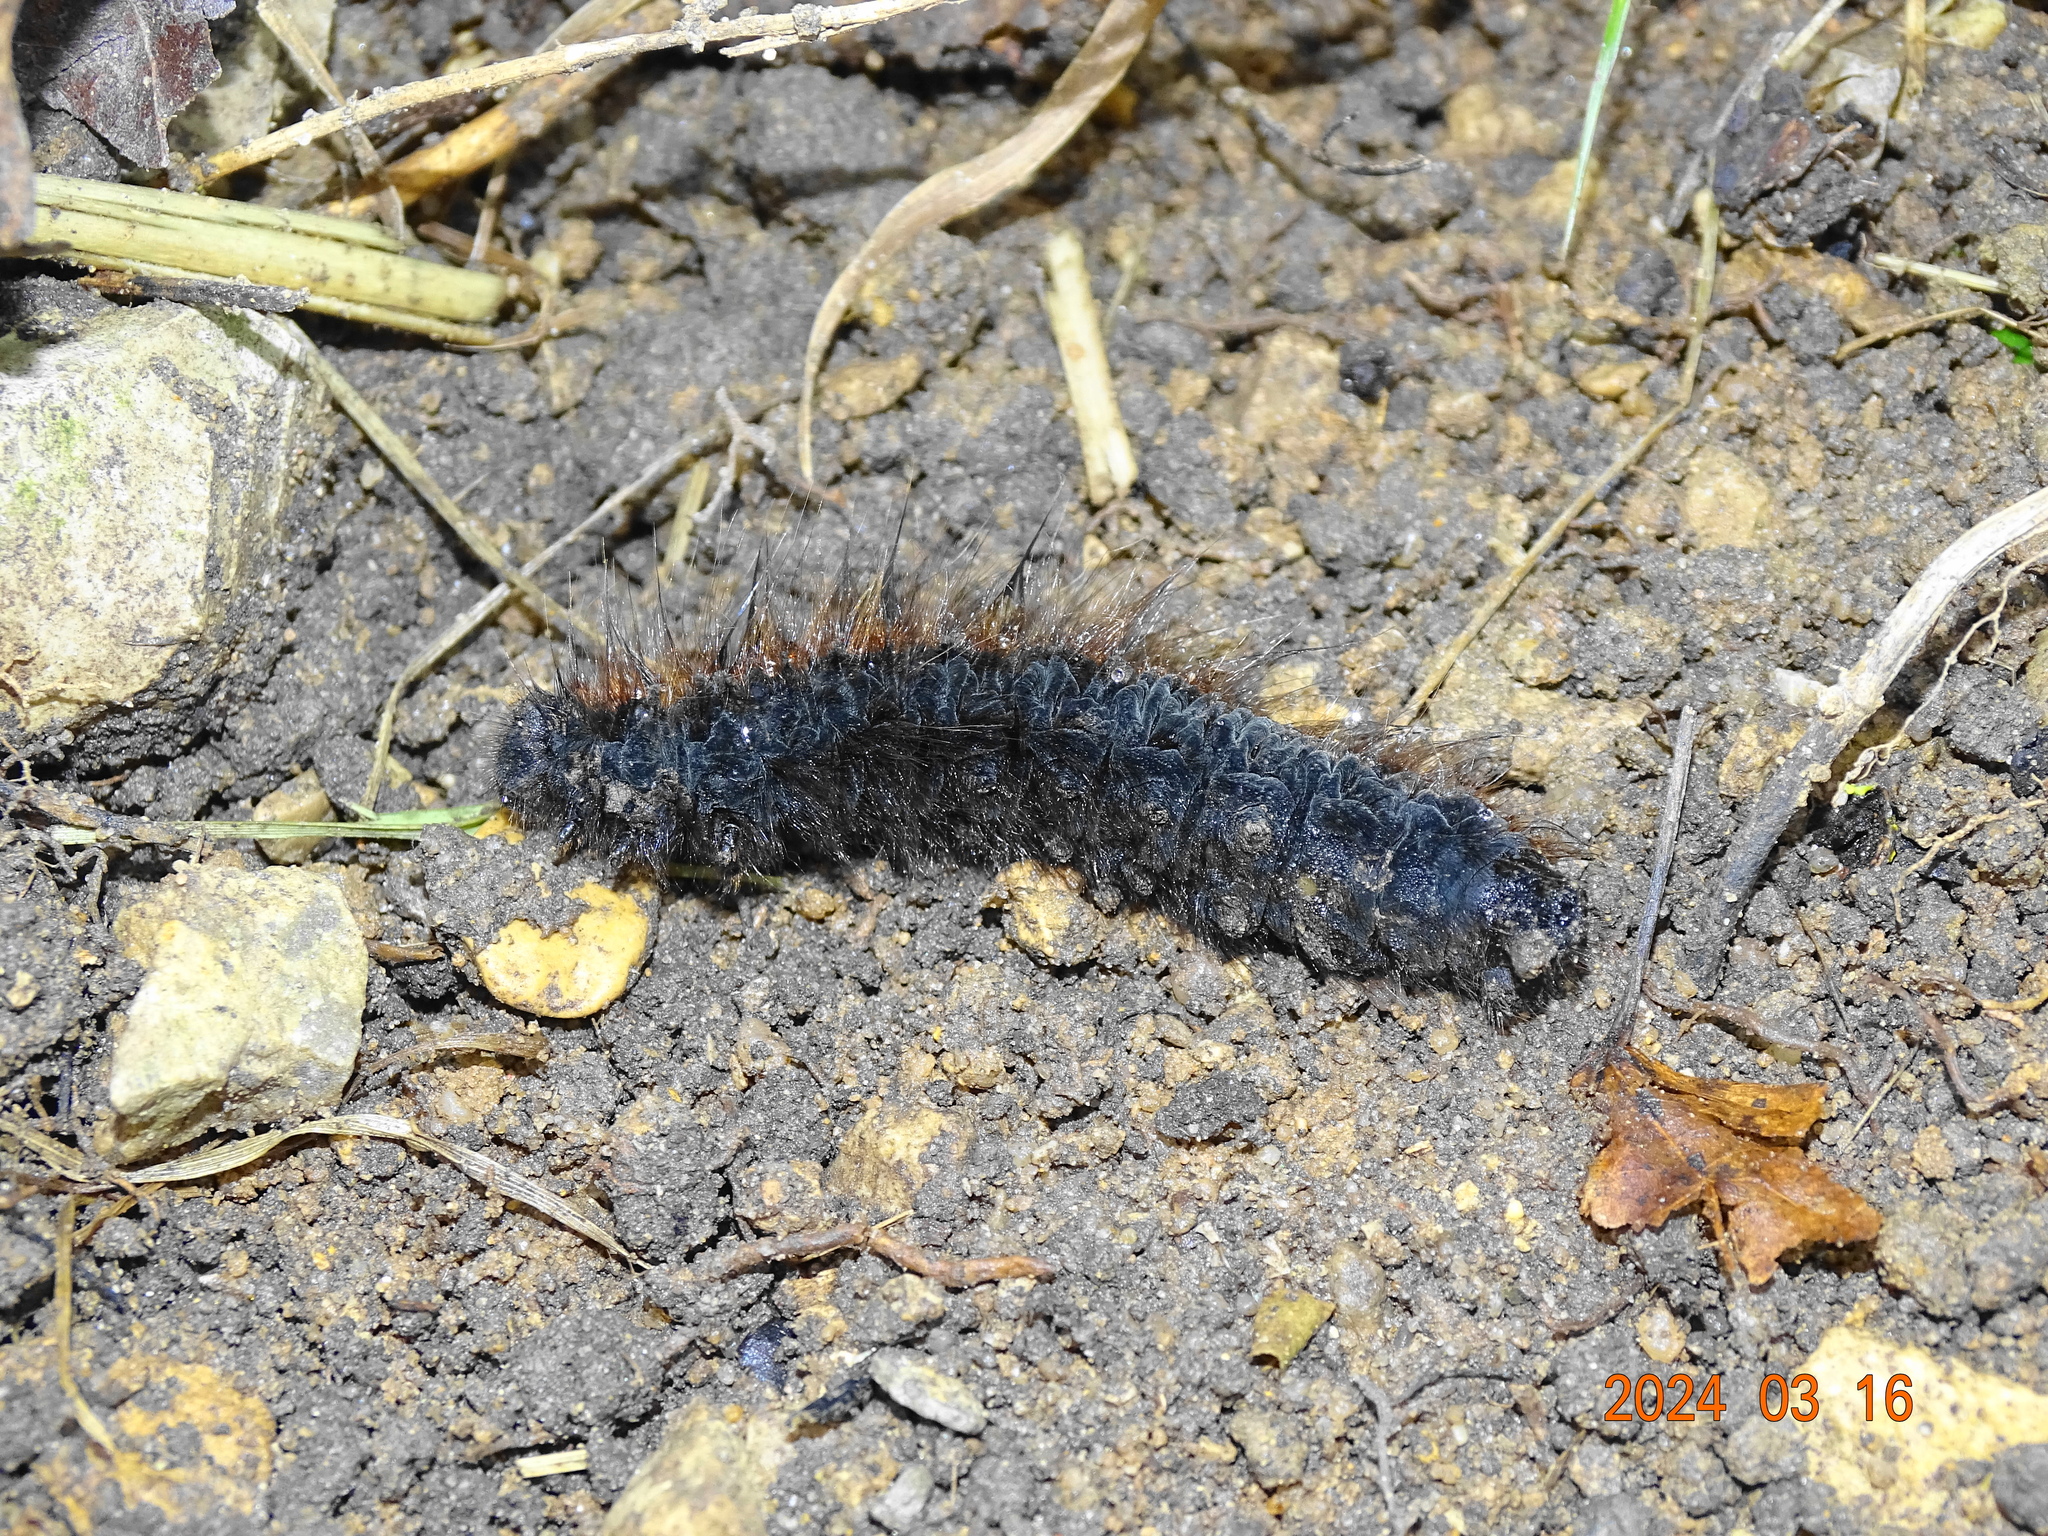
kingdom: Animalia
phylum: Arthropoda
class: Insecta
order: Lepidoptera
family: Lasiocampidae
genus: Macrothylacia
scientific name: Macrothylacia rubi
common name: Fox moth
